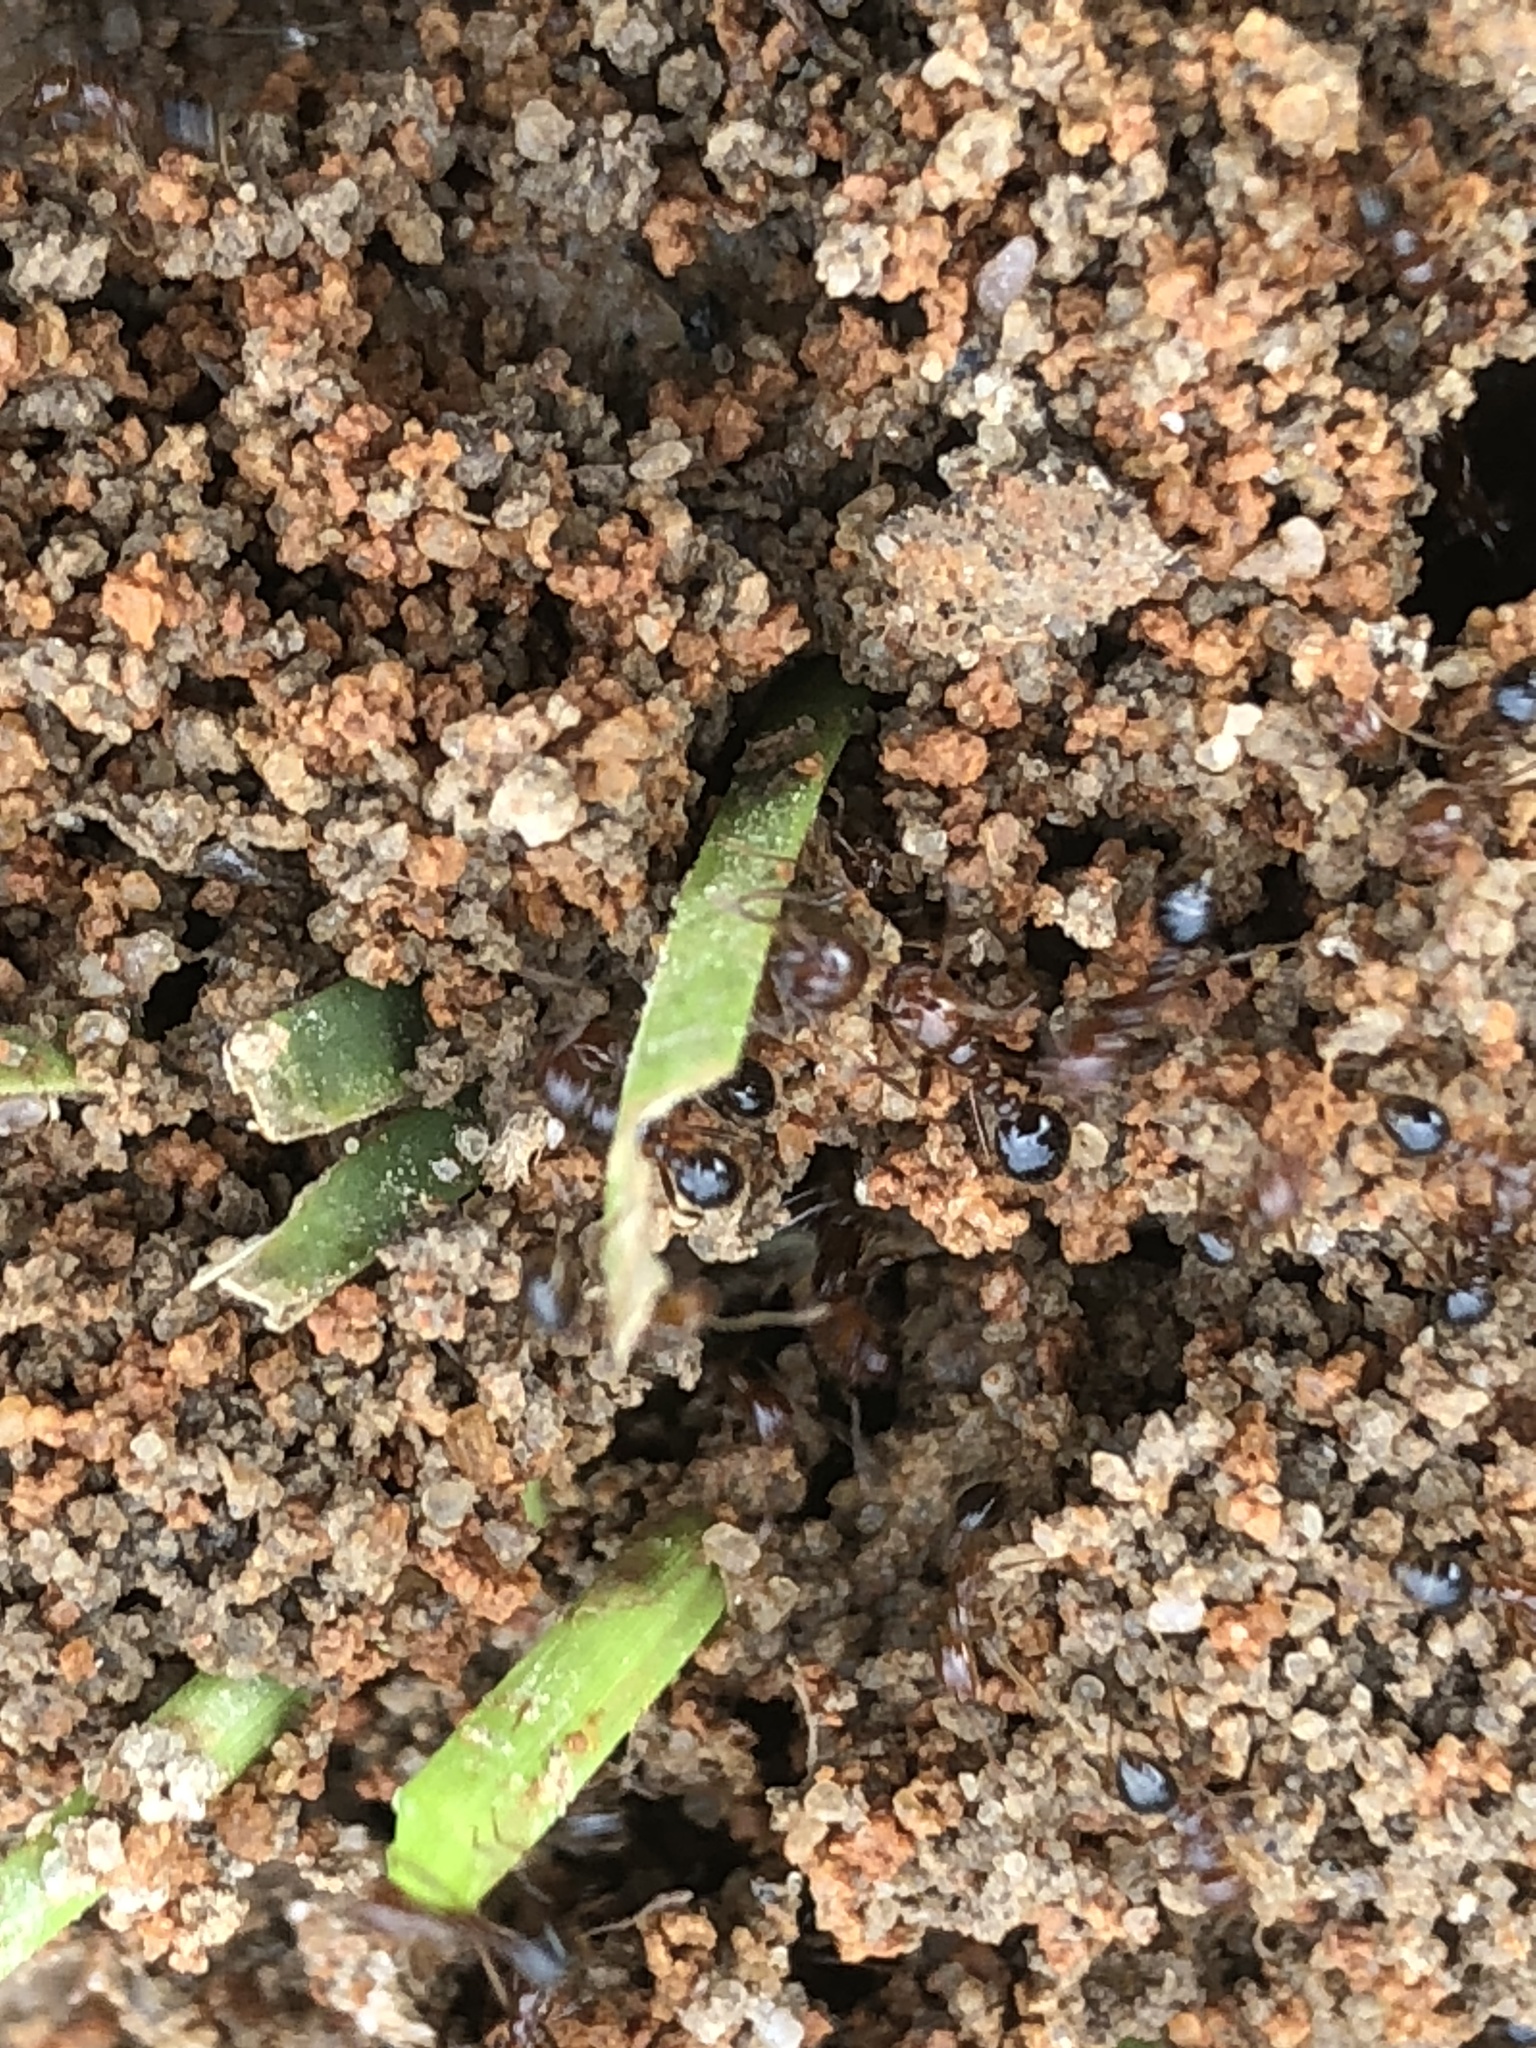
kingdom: Animalia
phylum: Arthropoda
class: Insecta
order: Hymenoptera
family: Formicidae
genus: Solenopsis
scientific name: Solenopsis invicta
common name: Red imported fire ant
